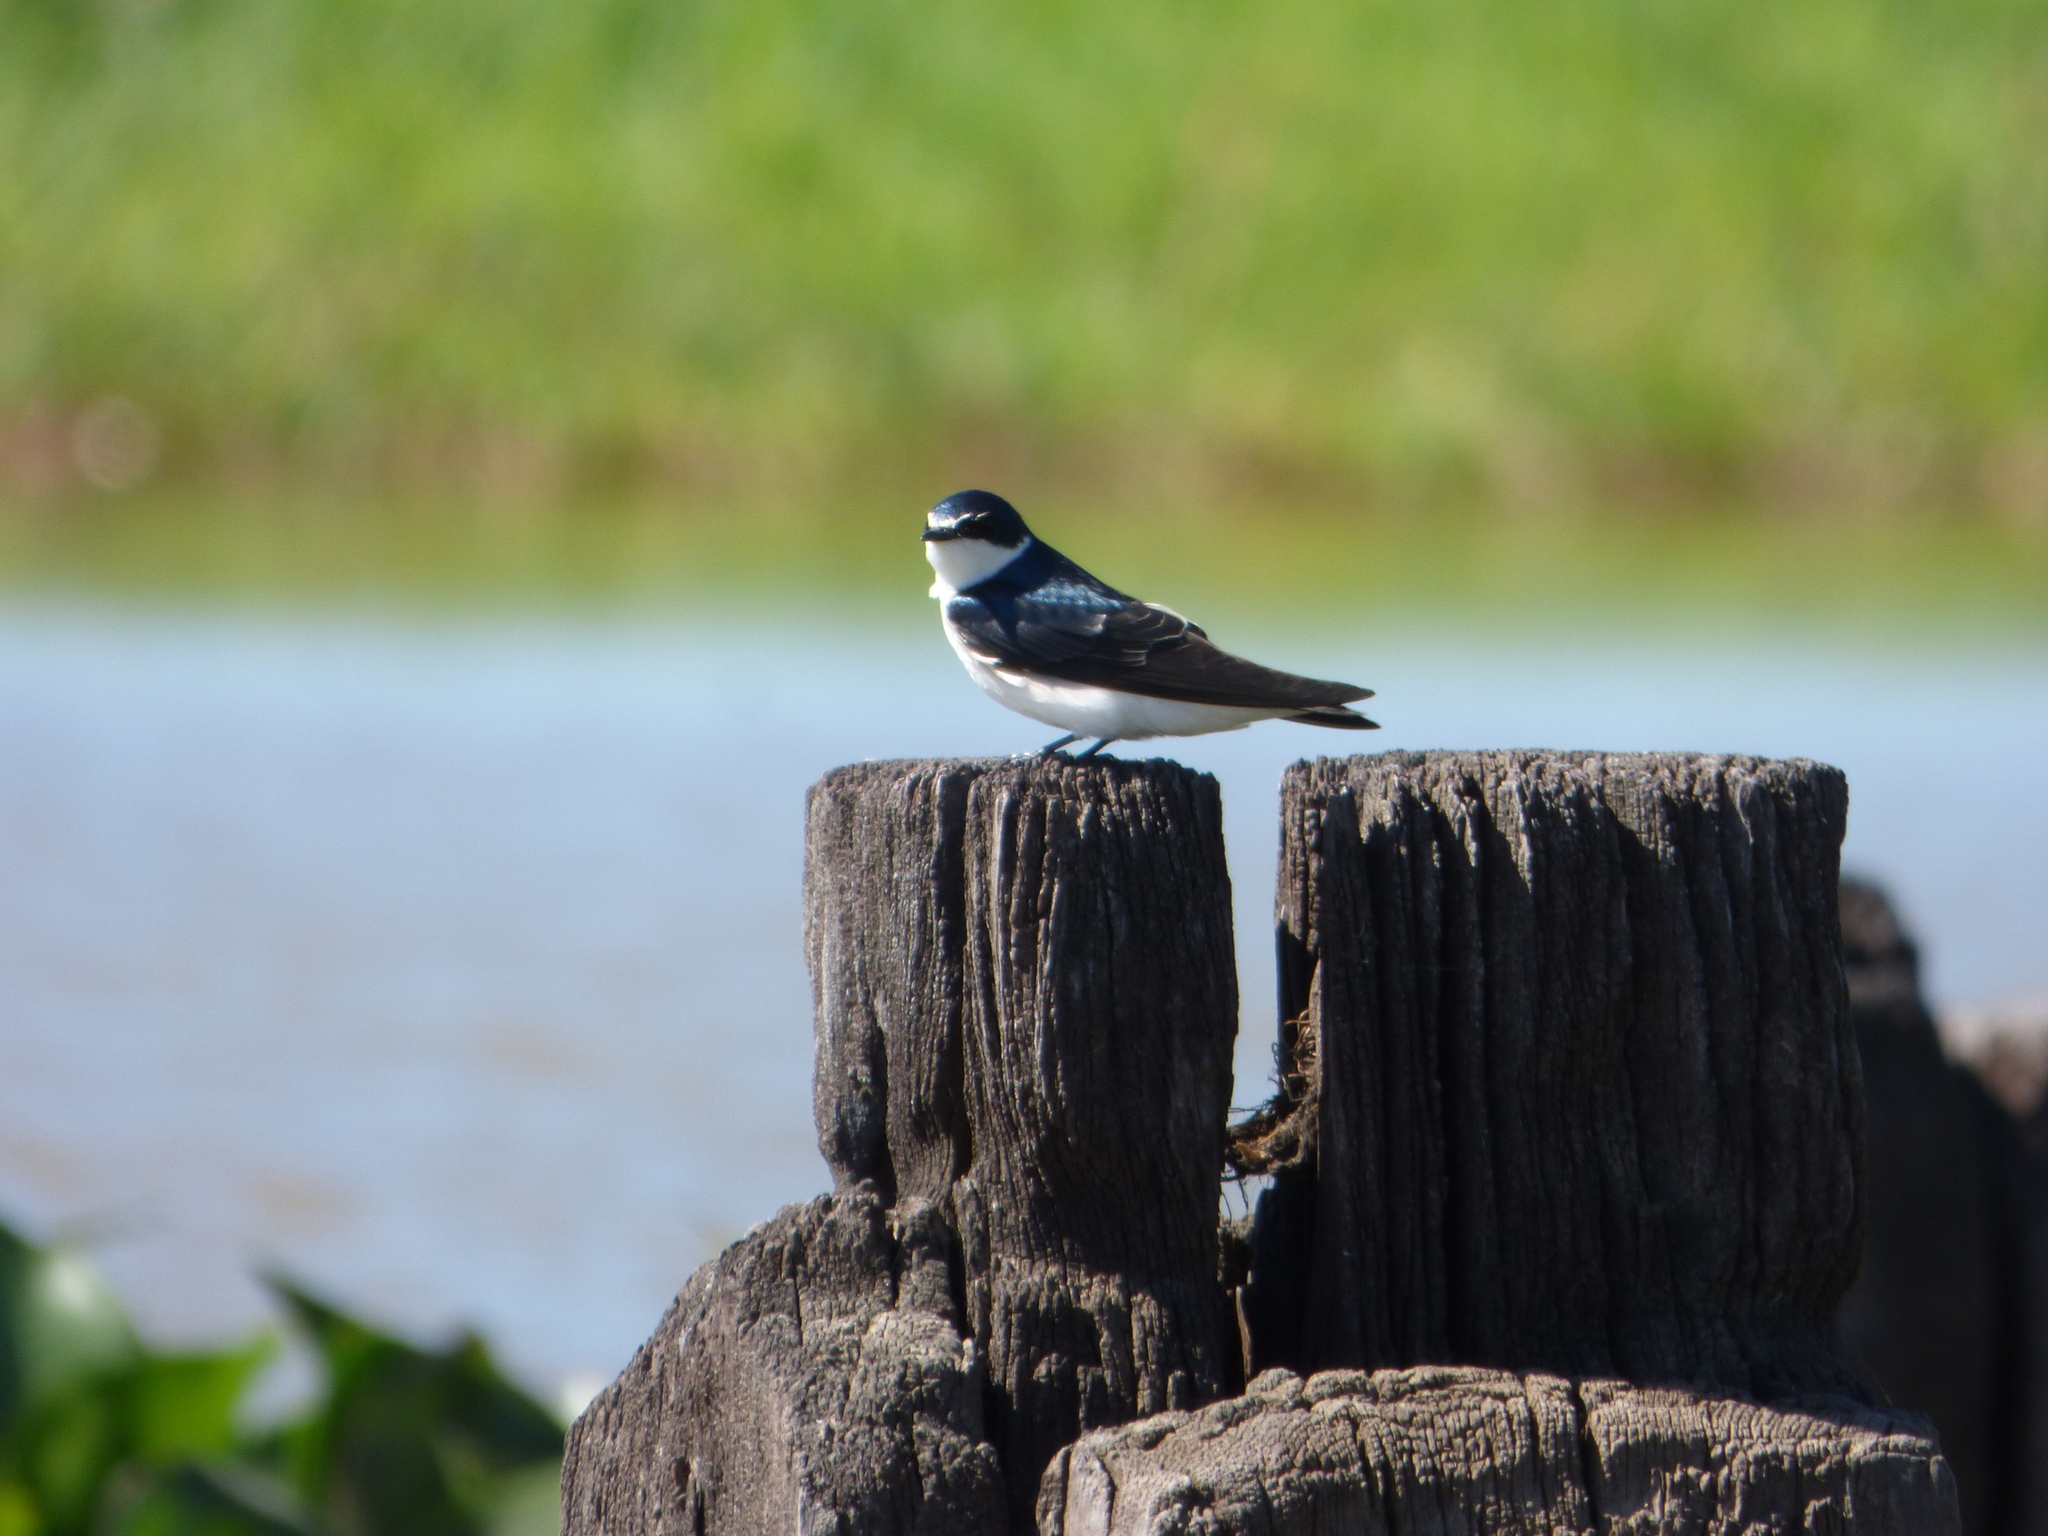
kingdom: Animalia
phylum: Chordata
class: Aves
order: Passeriformes
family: Hirundinidae
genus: Tachycineta
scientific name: Tachycineta leucorrhoa
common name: White-rumped swallow
